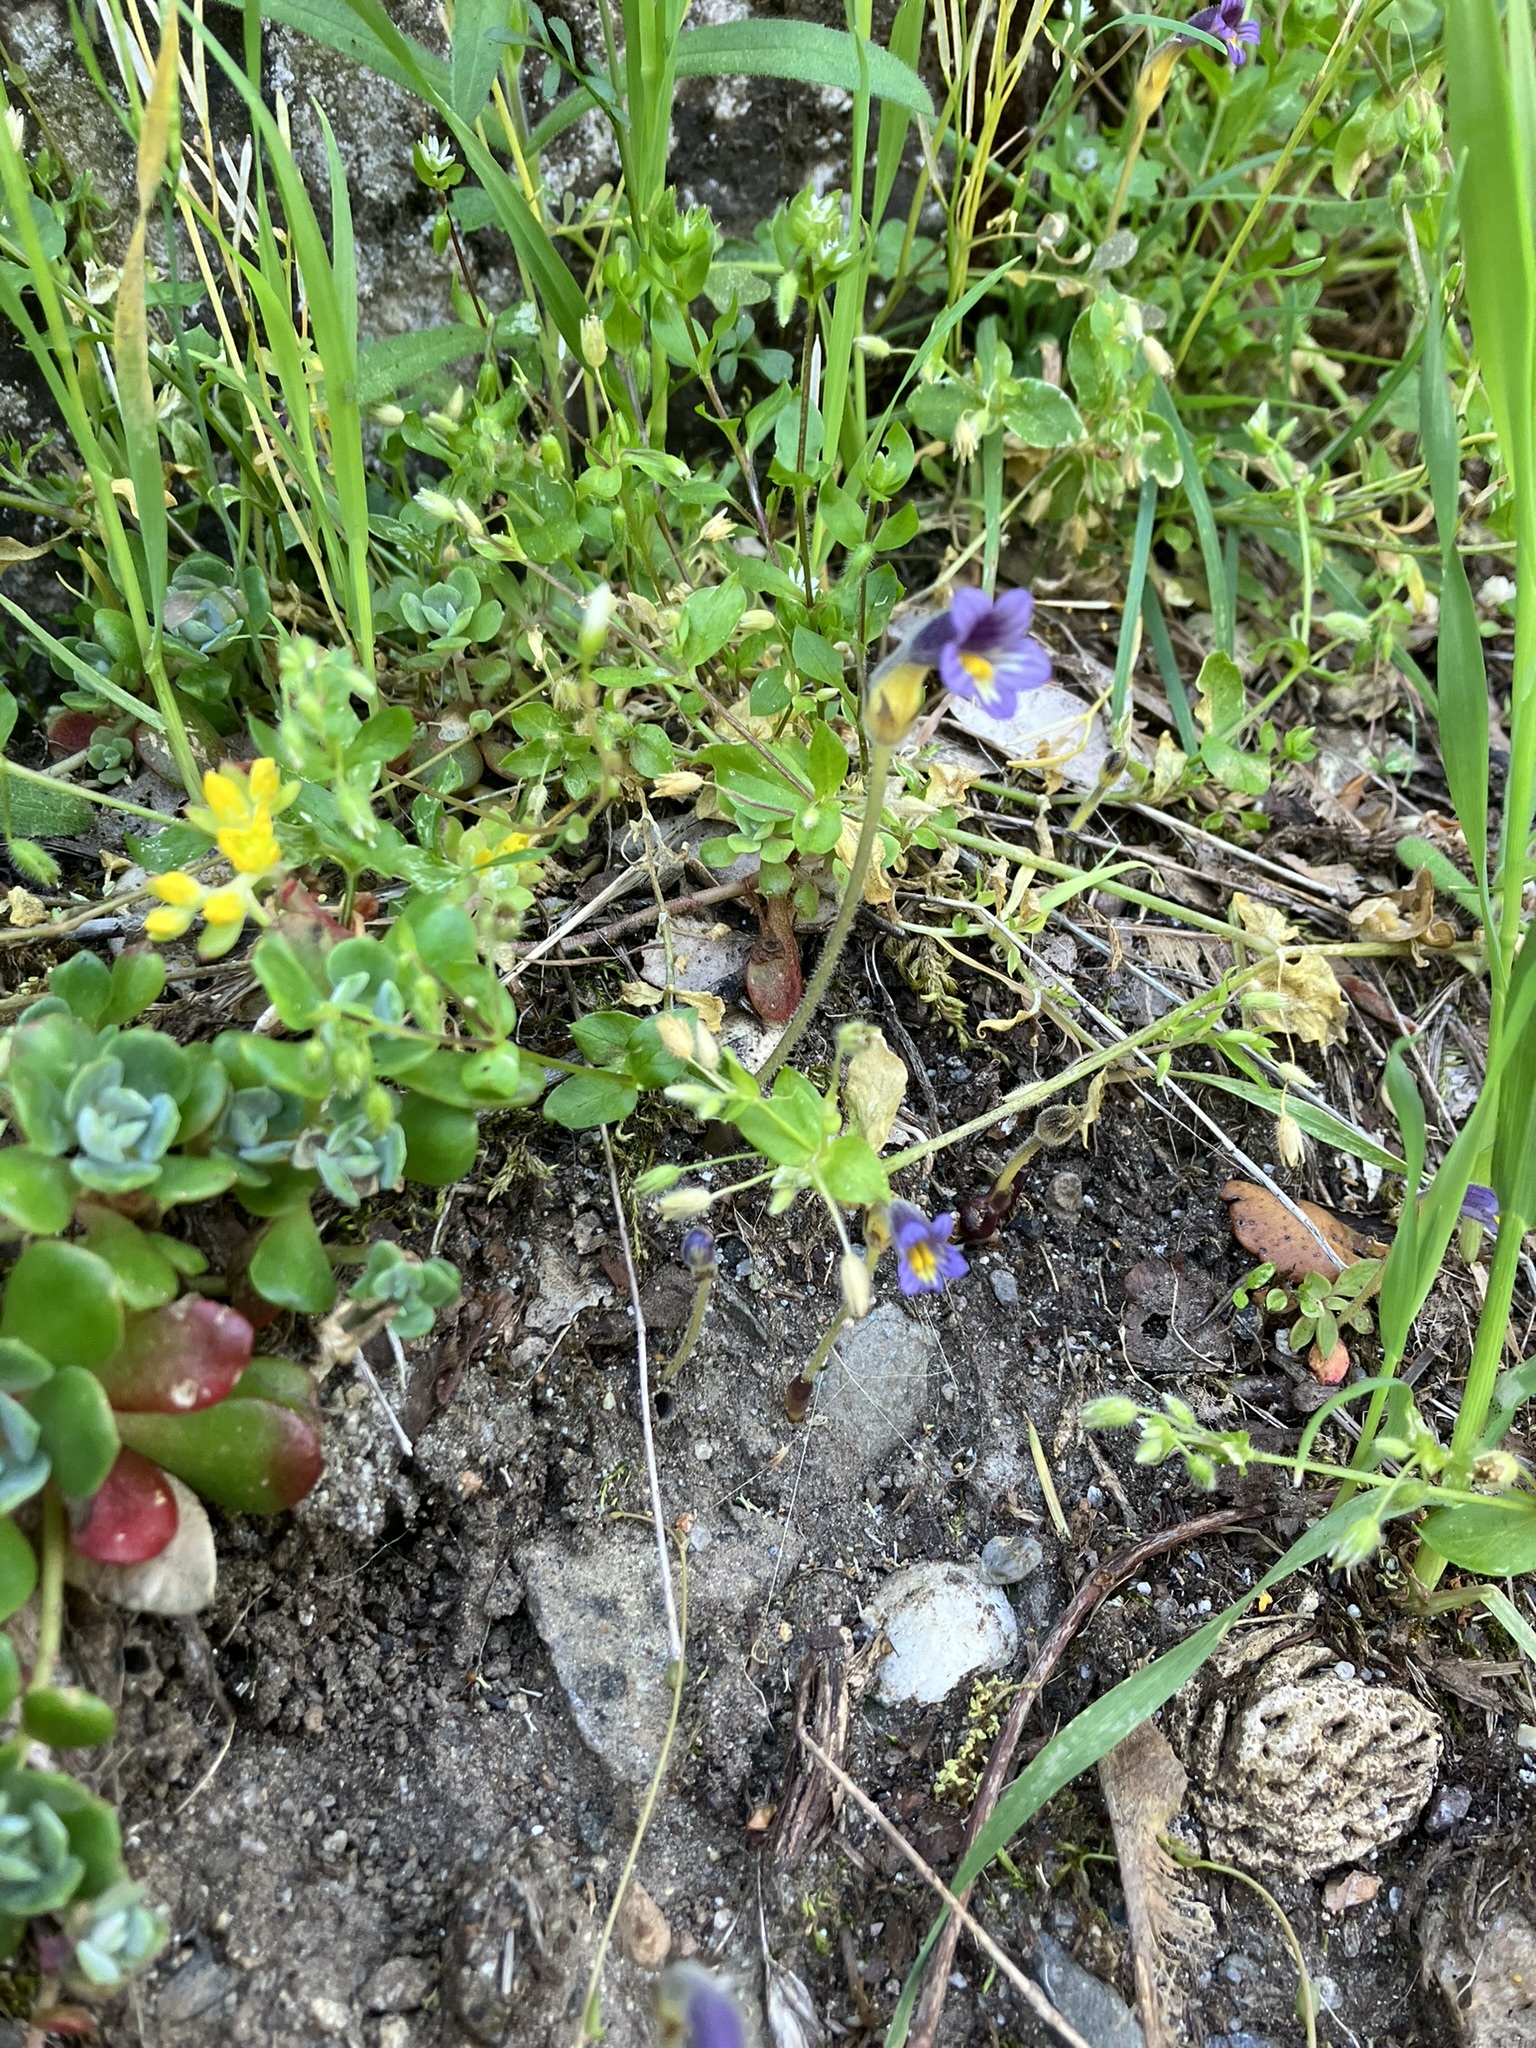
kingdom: Plantae
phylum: Tracheophyta
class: Magnoliopsida
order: Lamiales
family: Orobanchaceae
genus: Aphyllon
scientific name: Aphyllon uniflorum
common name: One-flowered broomrape
